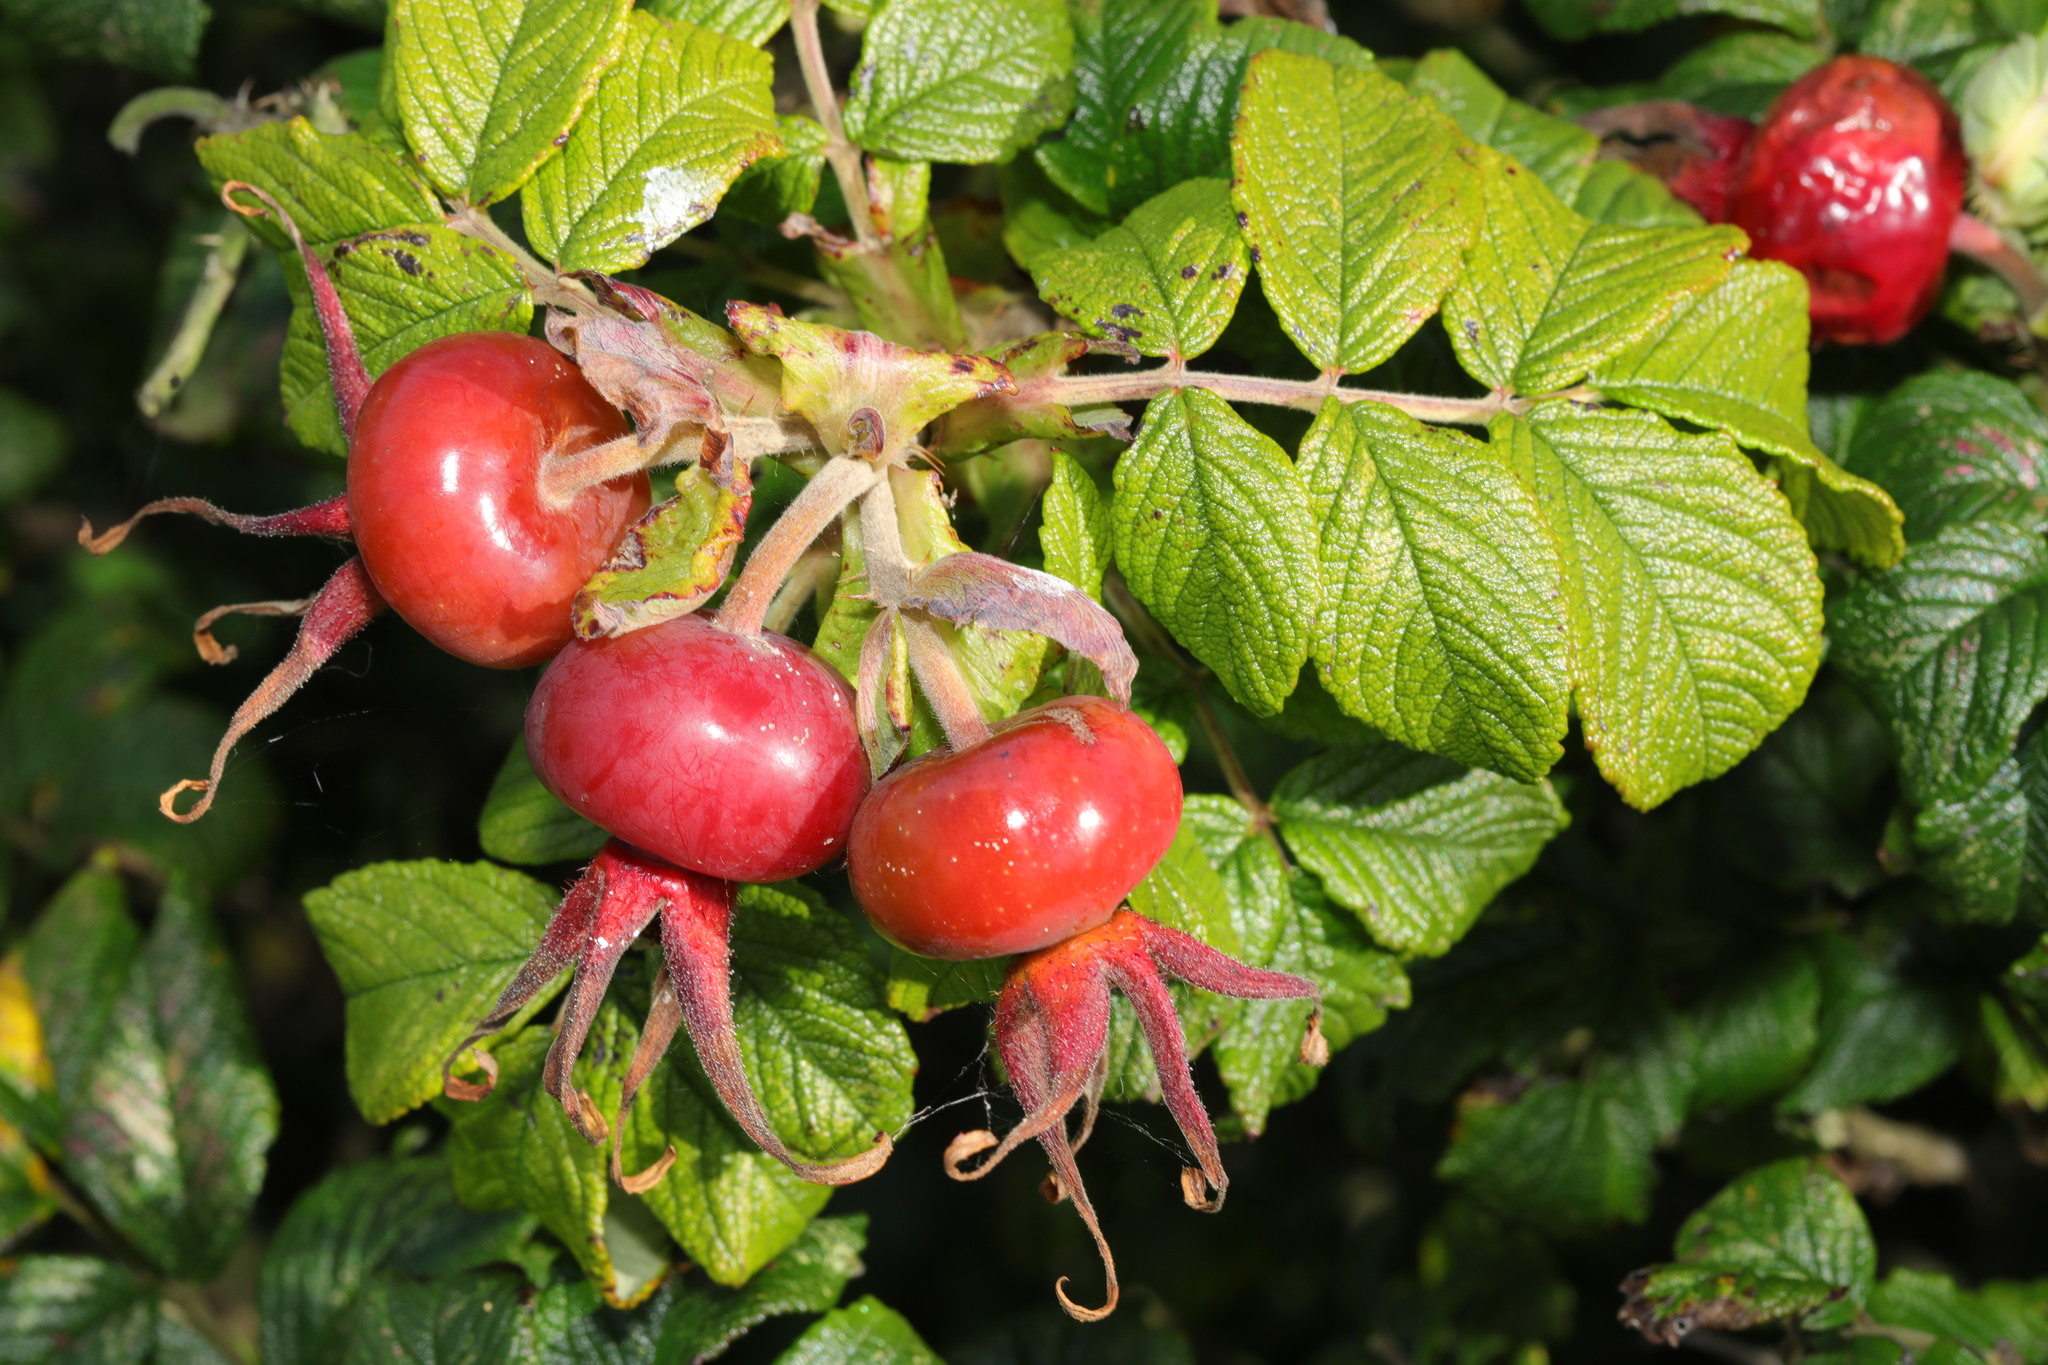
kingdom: Plantae
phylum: Tracheophyta
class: Magnoliopsida
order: Rosales
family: Rosaceae
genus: Rosa
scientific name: Rosa rugosa
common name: Japanese rose
